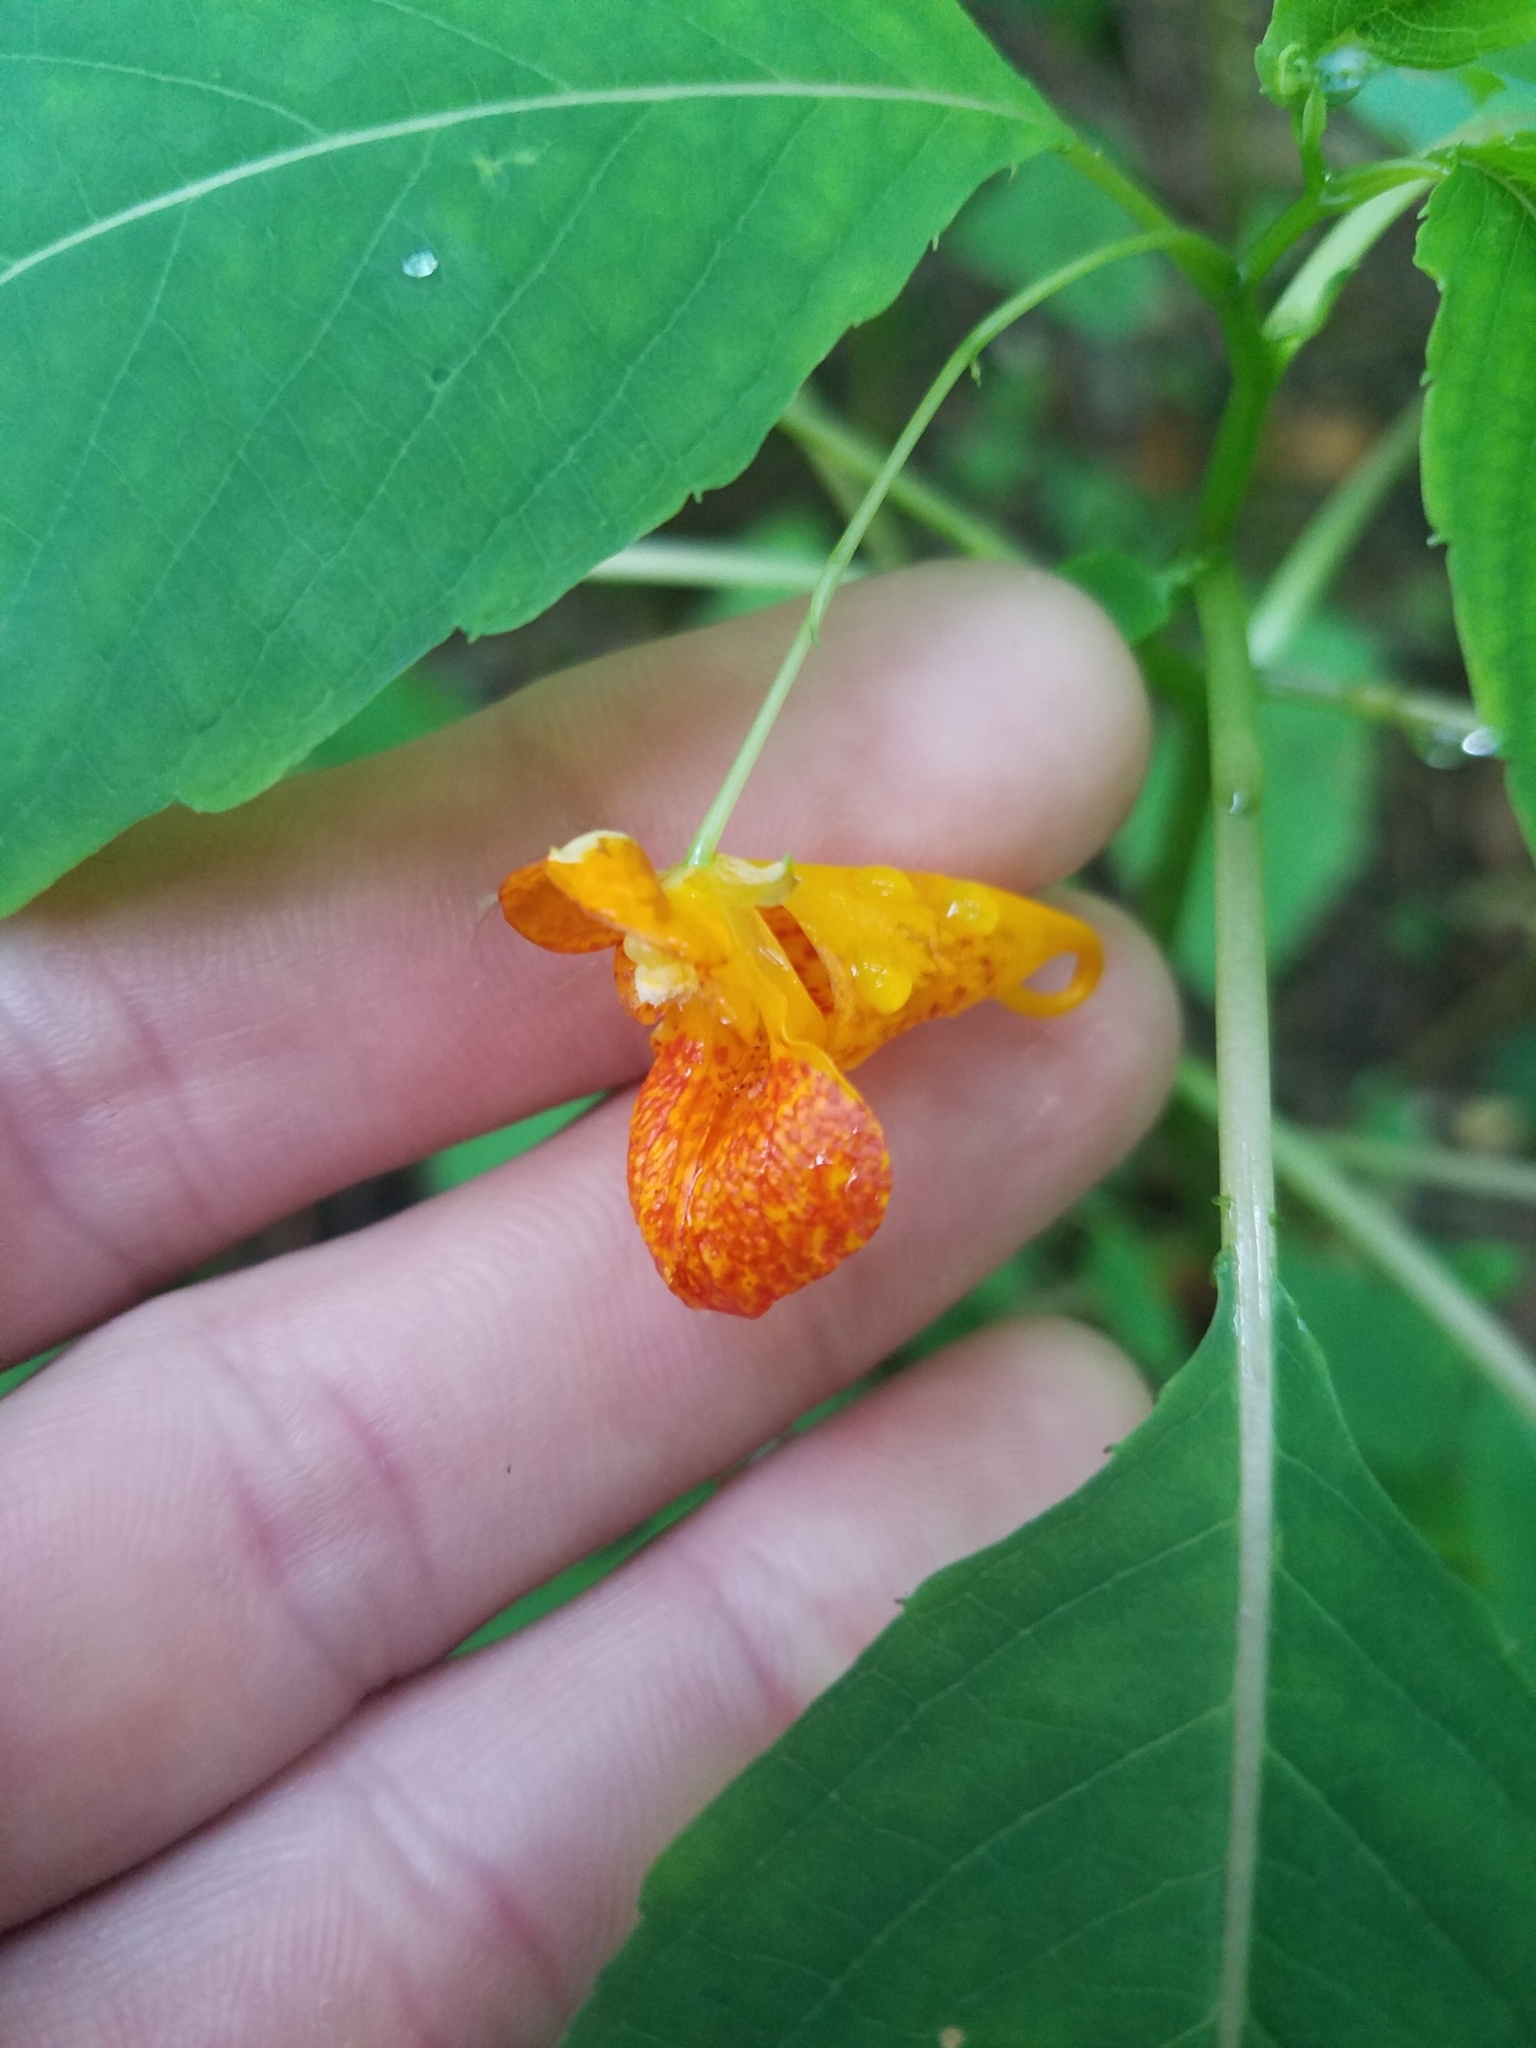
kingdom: Plantae
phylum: Tracheophyta
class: Magnoliopsida
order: Ericales
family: Balsaminaceae
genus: Impatiens
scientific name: Impatiens capensis
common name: Orange balsam
